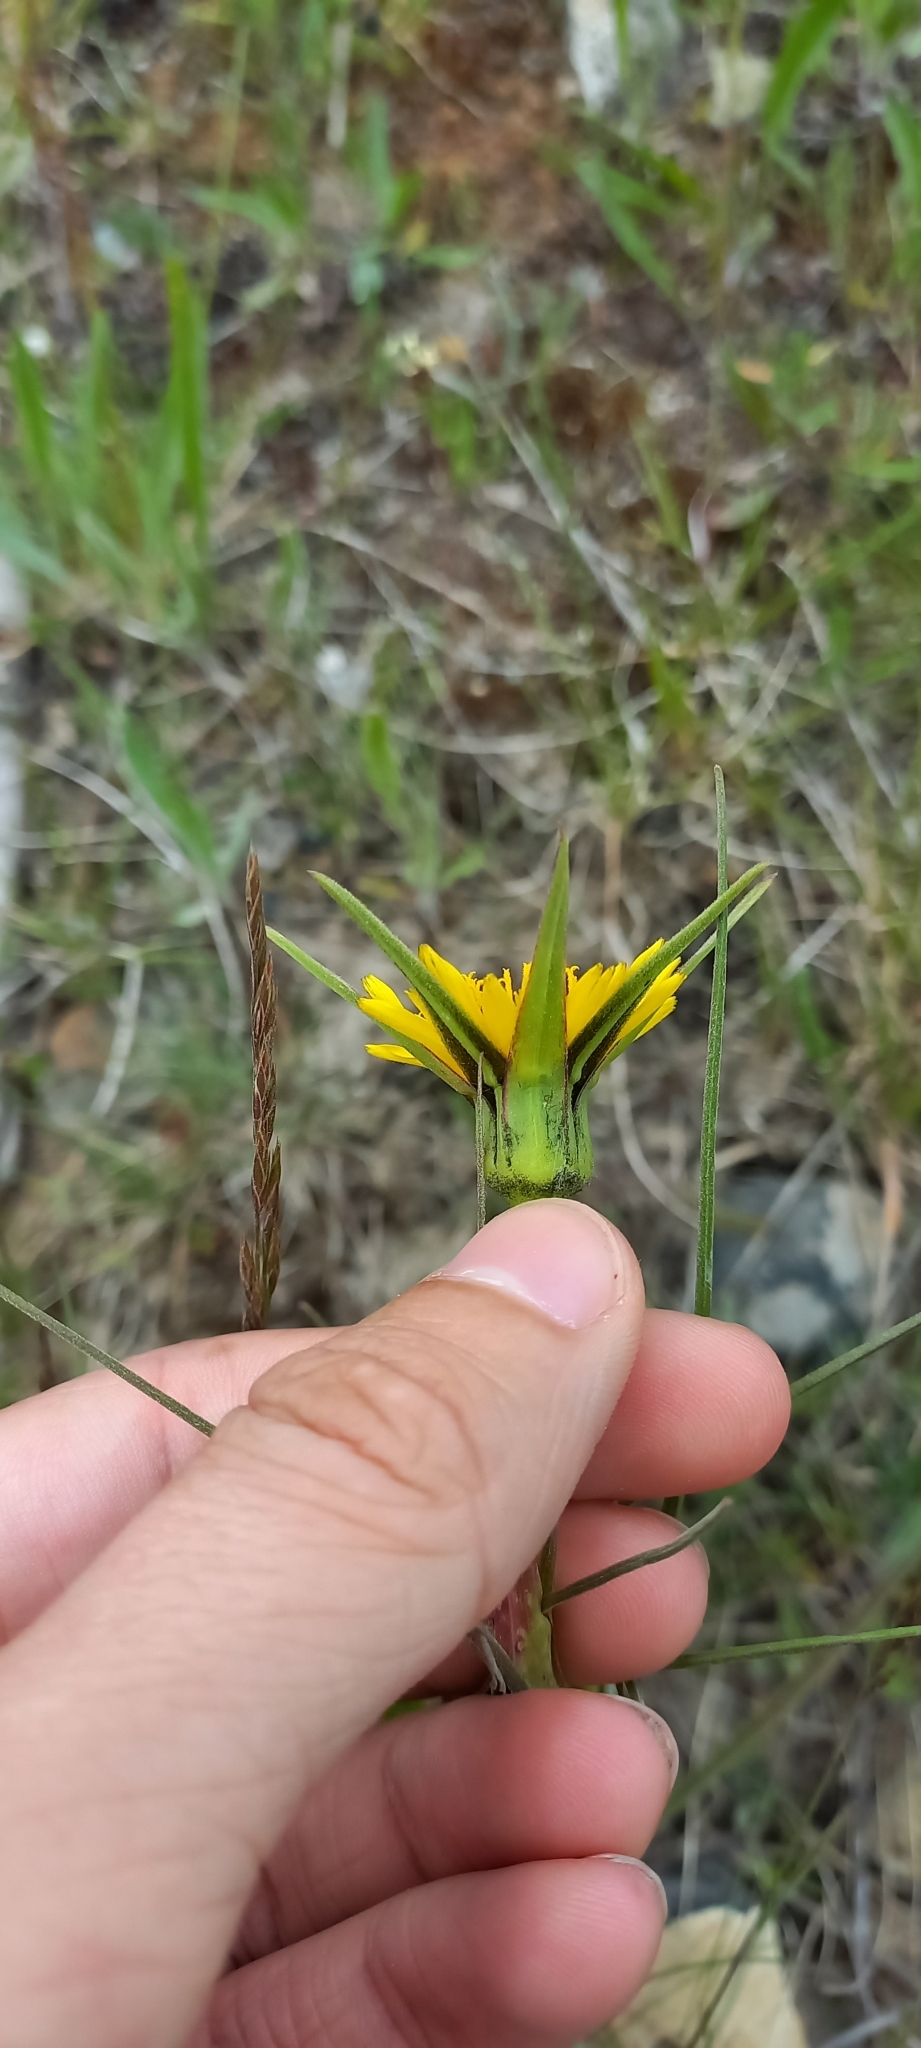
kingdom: Plantae
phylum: Tracheophyta
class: Magnoliopsida
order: Asterales
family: Asteraceae
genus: Tragopogon
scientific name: Tragopogon dubius
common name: Yellow salsify
